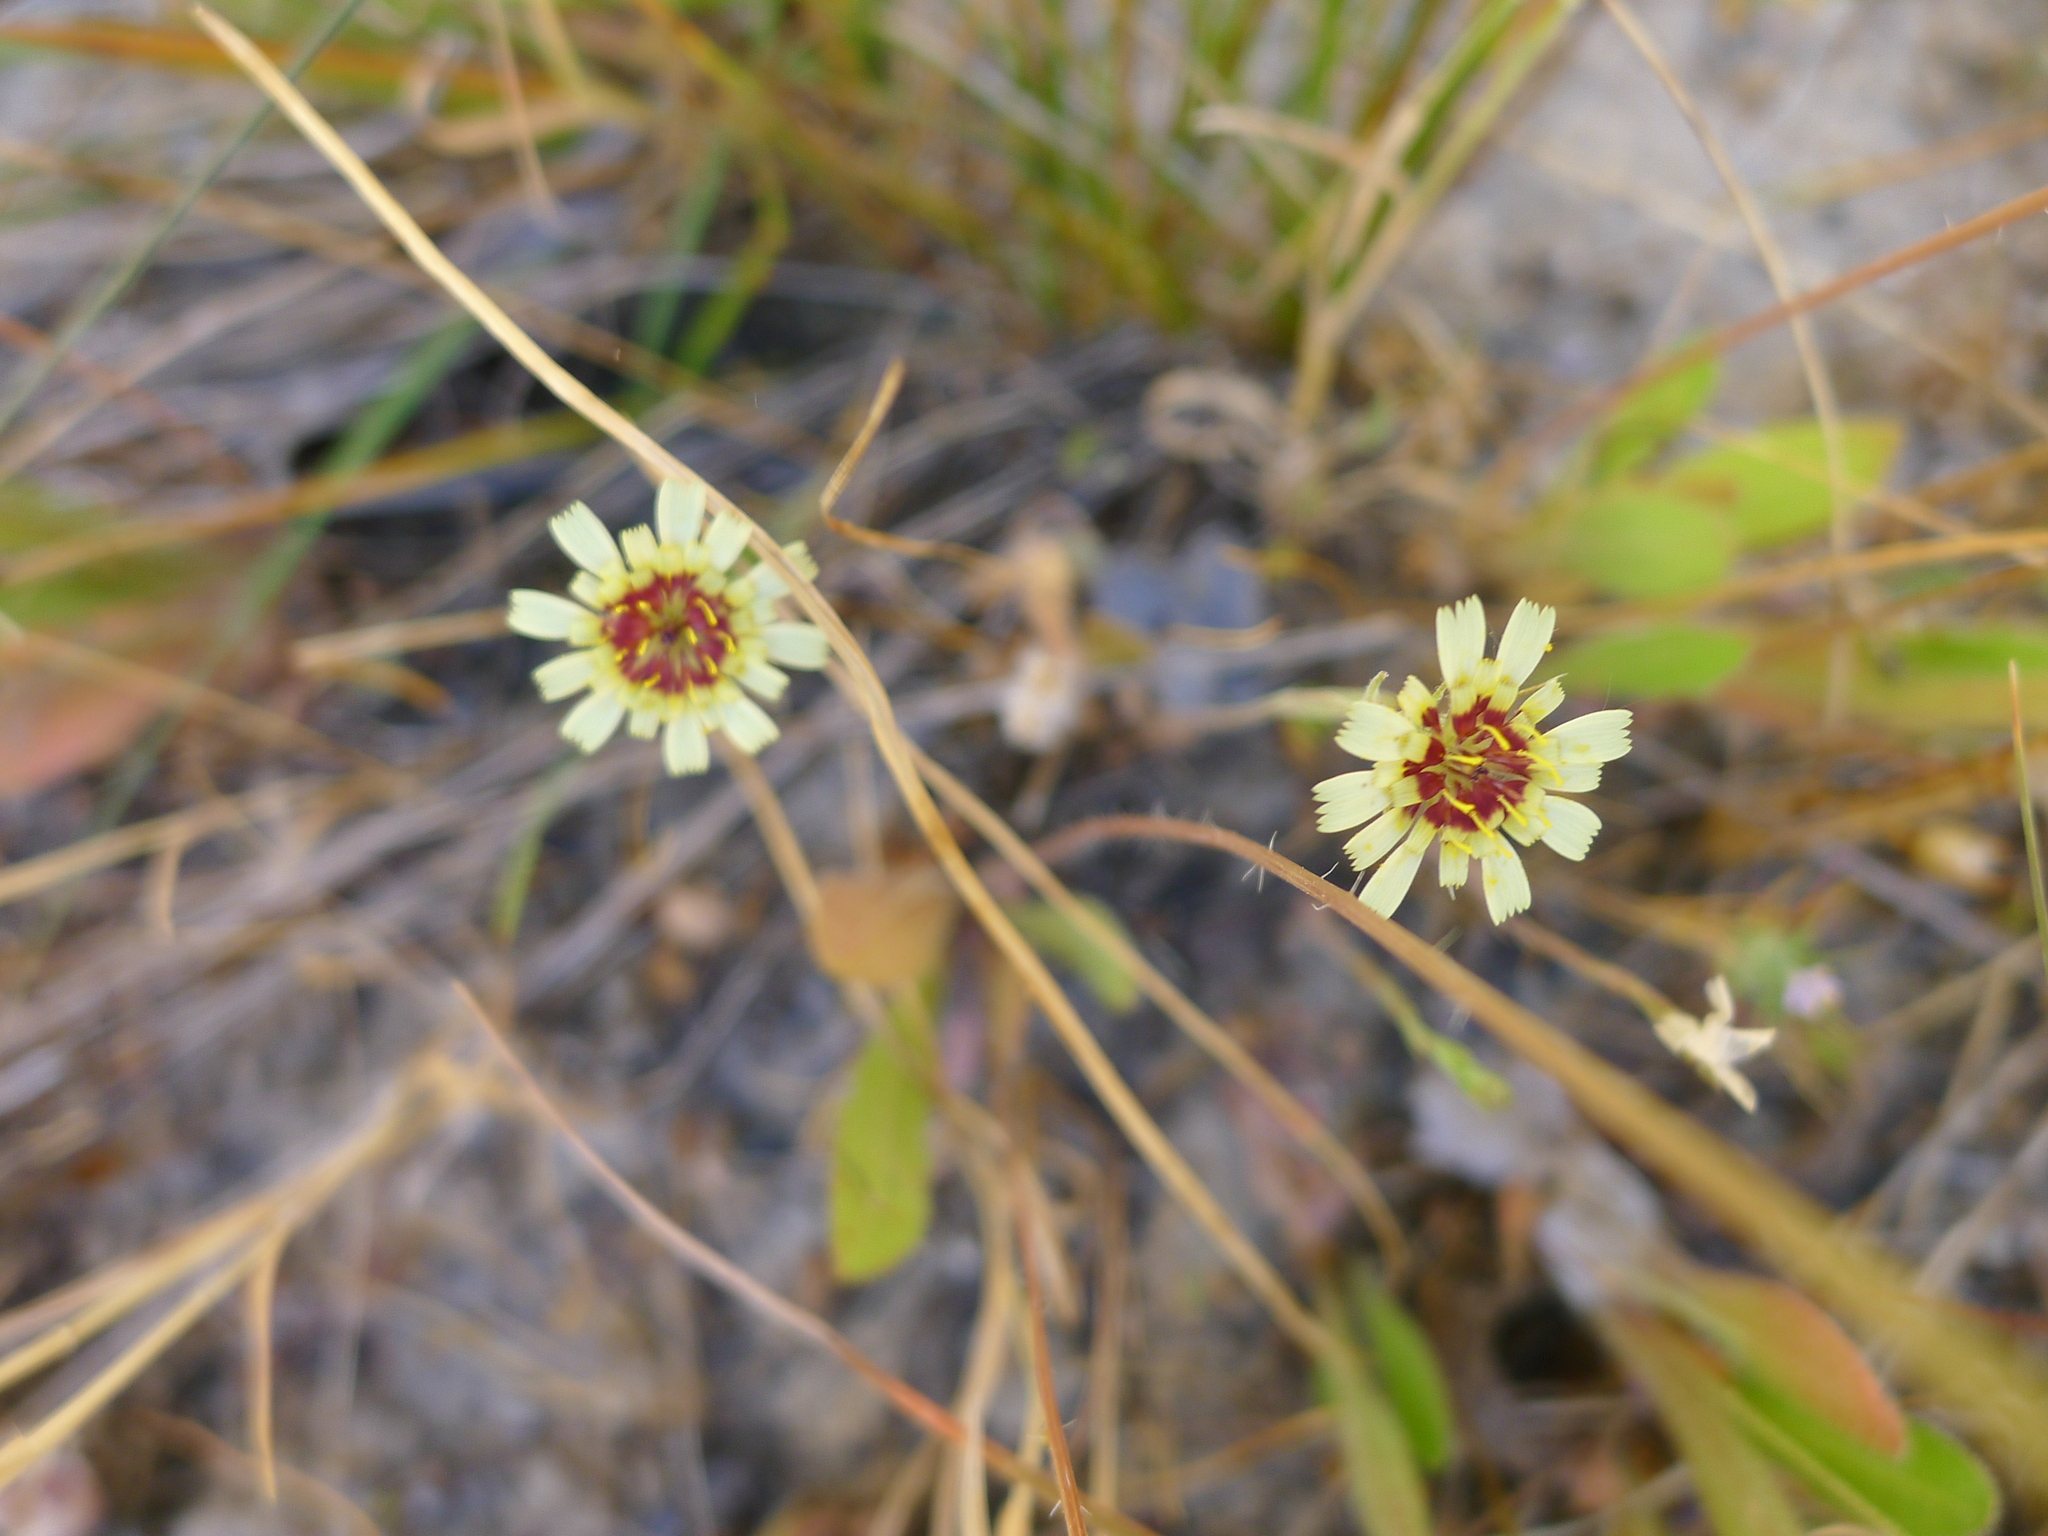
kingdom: Plantae
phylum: Tracheophyta
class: Magnoliopsida
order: Asterales
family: Asteraceae
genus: Tolpis
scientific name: Tolpis barbata
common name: Yellow hawkweed
